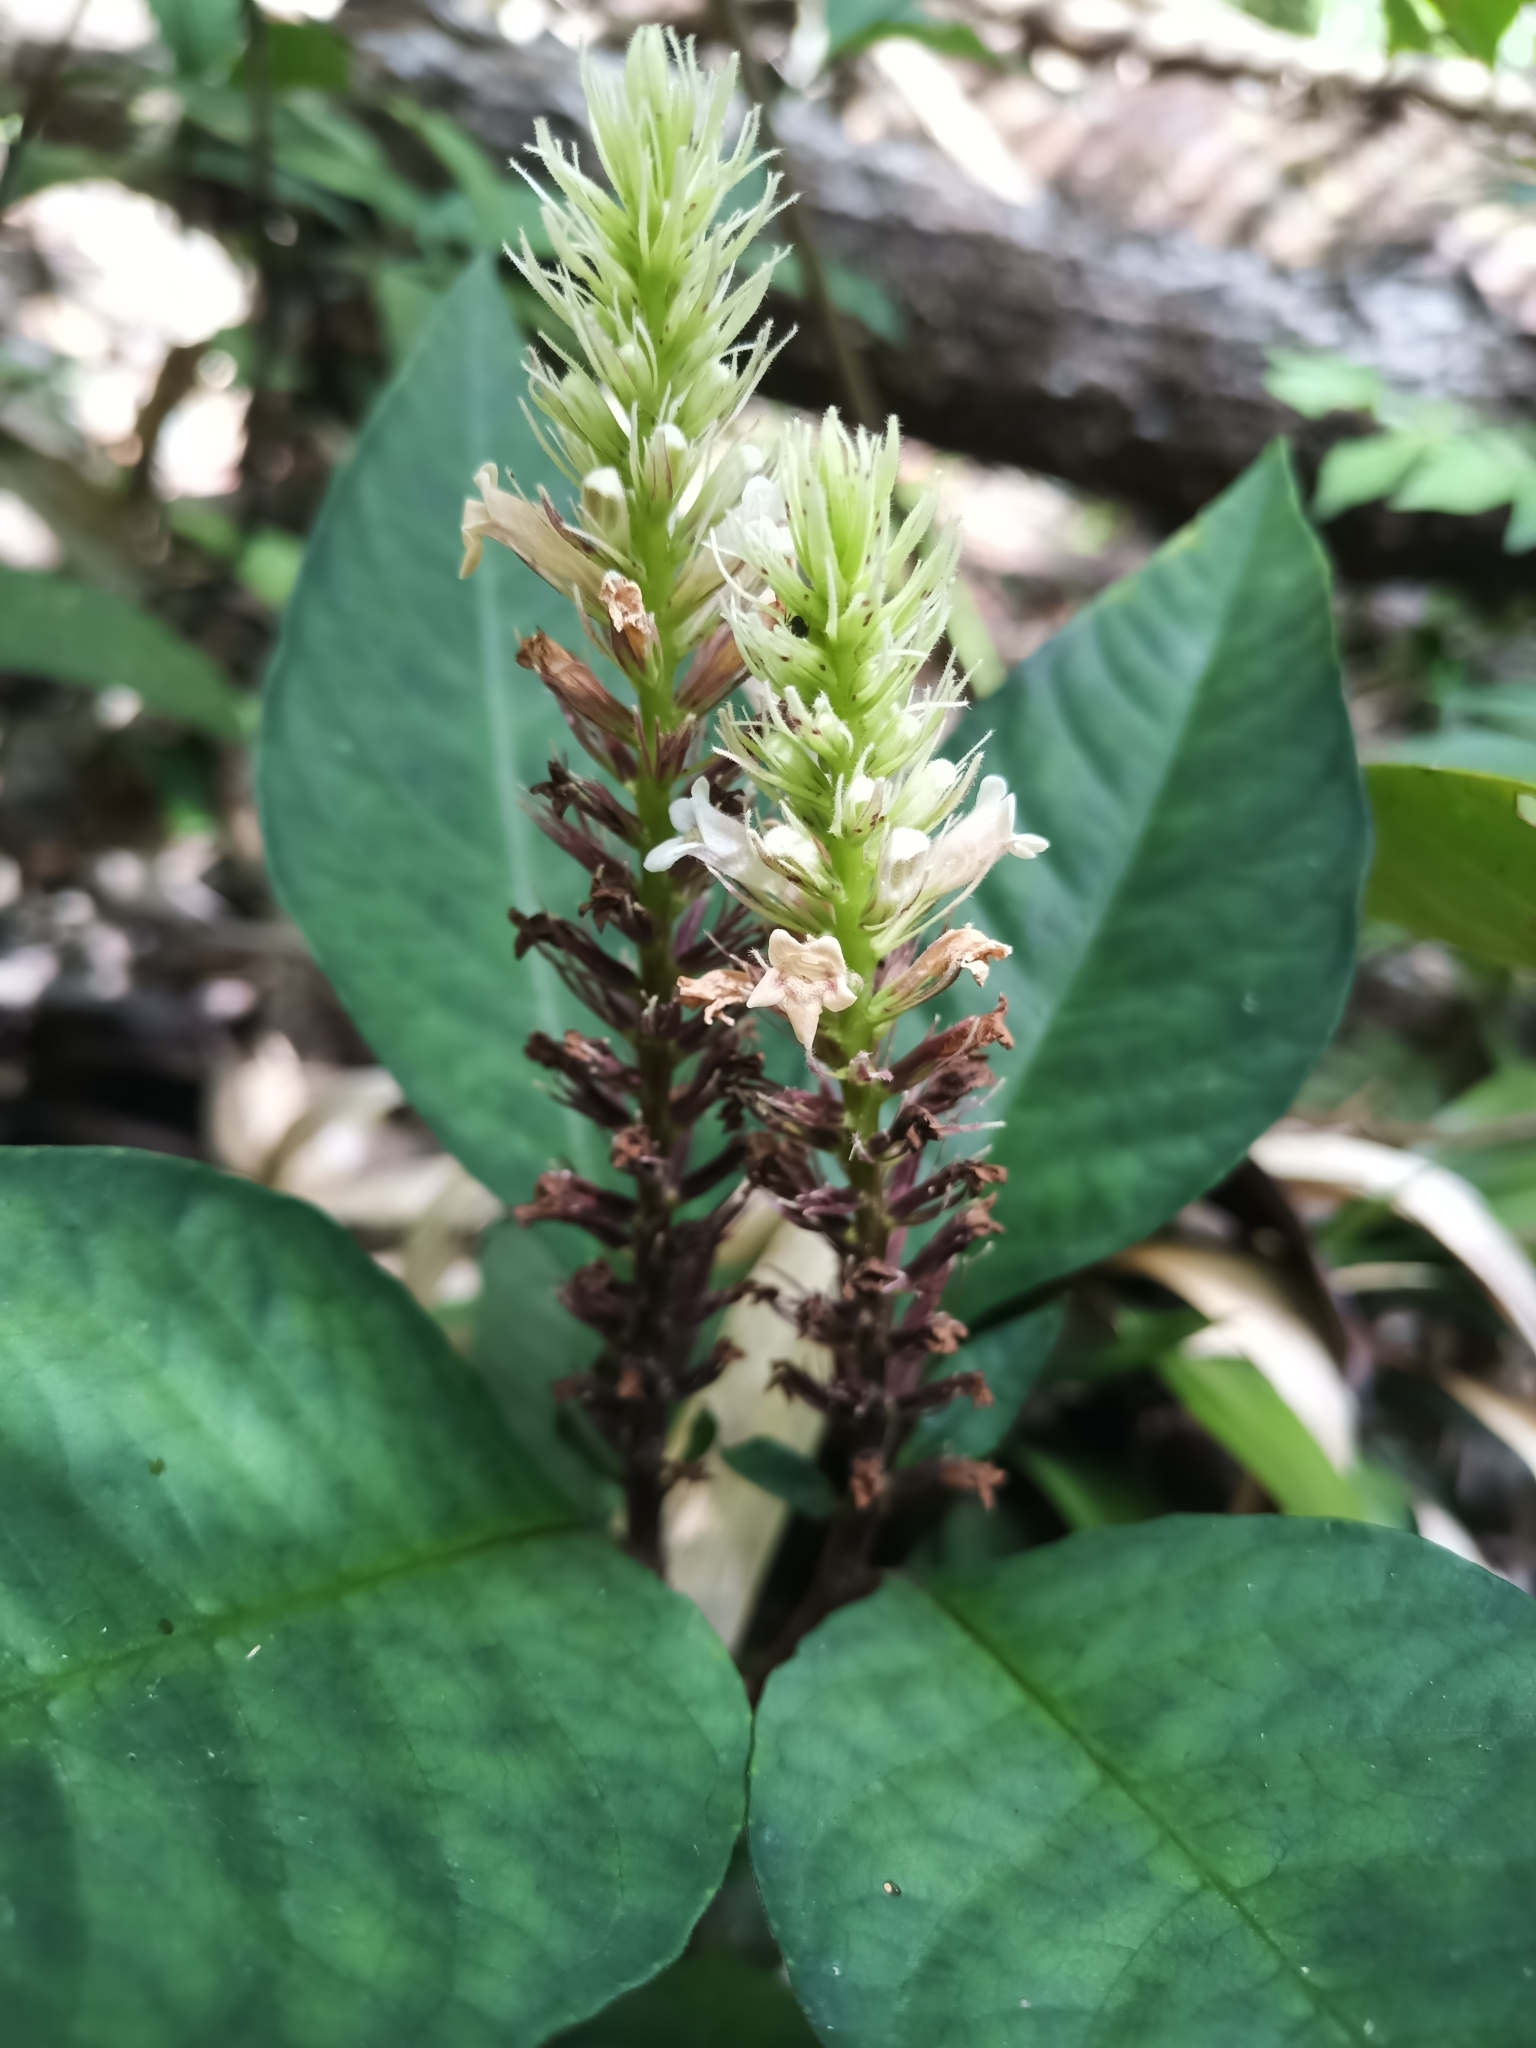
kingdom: Plantae
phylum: Tracheophyta
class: Magnoliopsida
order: Lamiales
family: Acanthaceae
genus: Staurogyne
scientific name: Staurogyne guianensis
